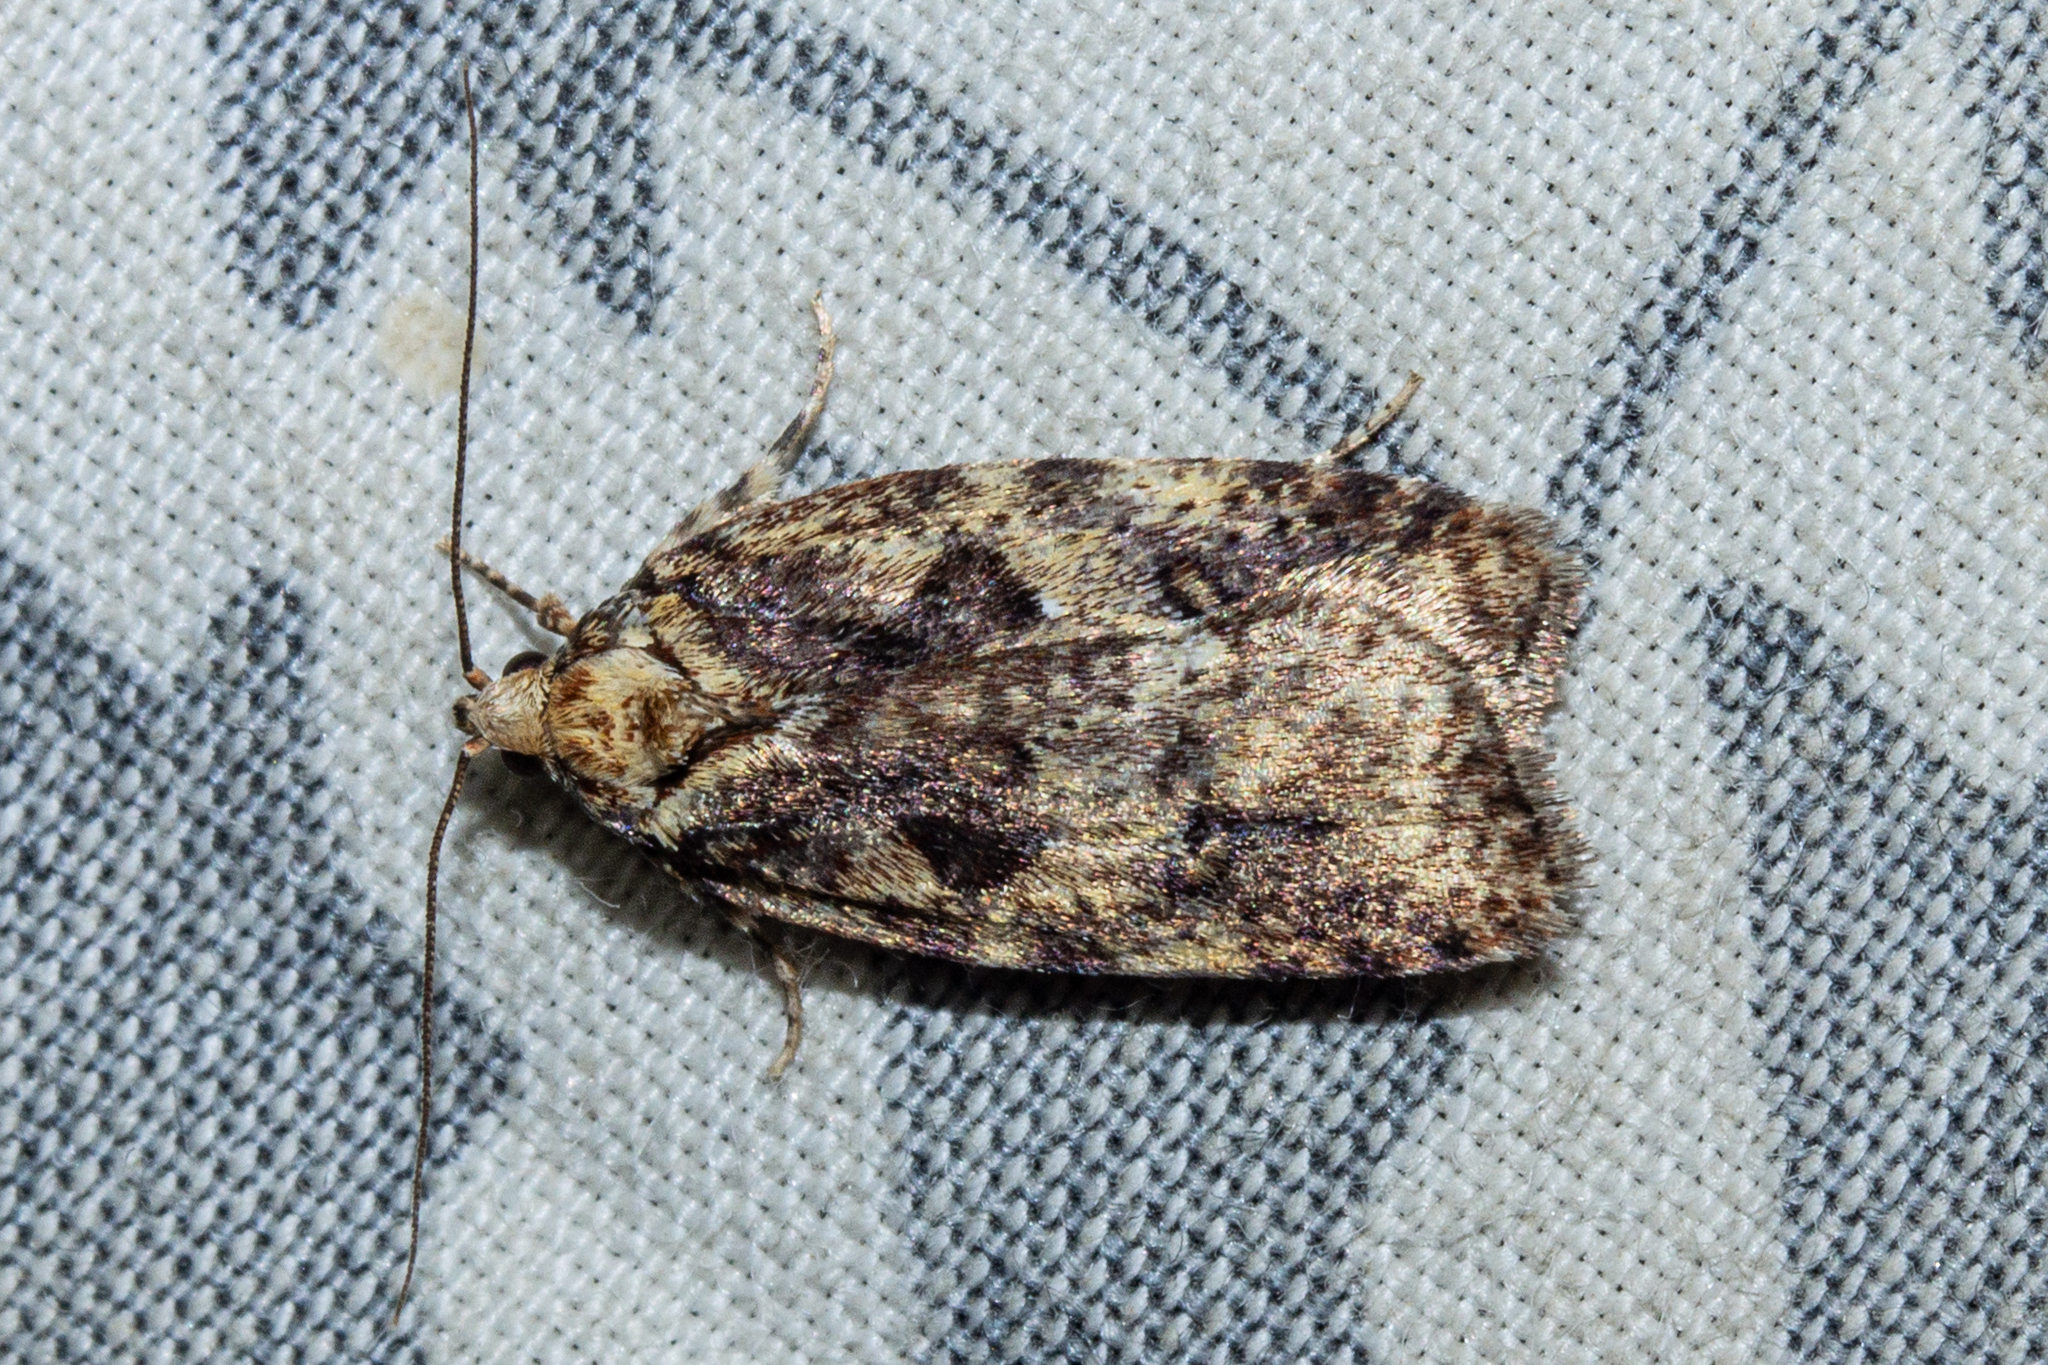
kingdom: Animalia
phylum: Arthropoda
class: Insecta
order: Lepidoptera
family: Oecophoridae
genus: Proteodes
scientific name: Proteodes profunda
